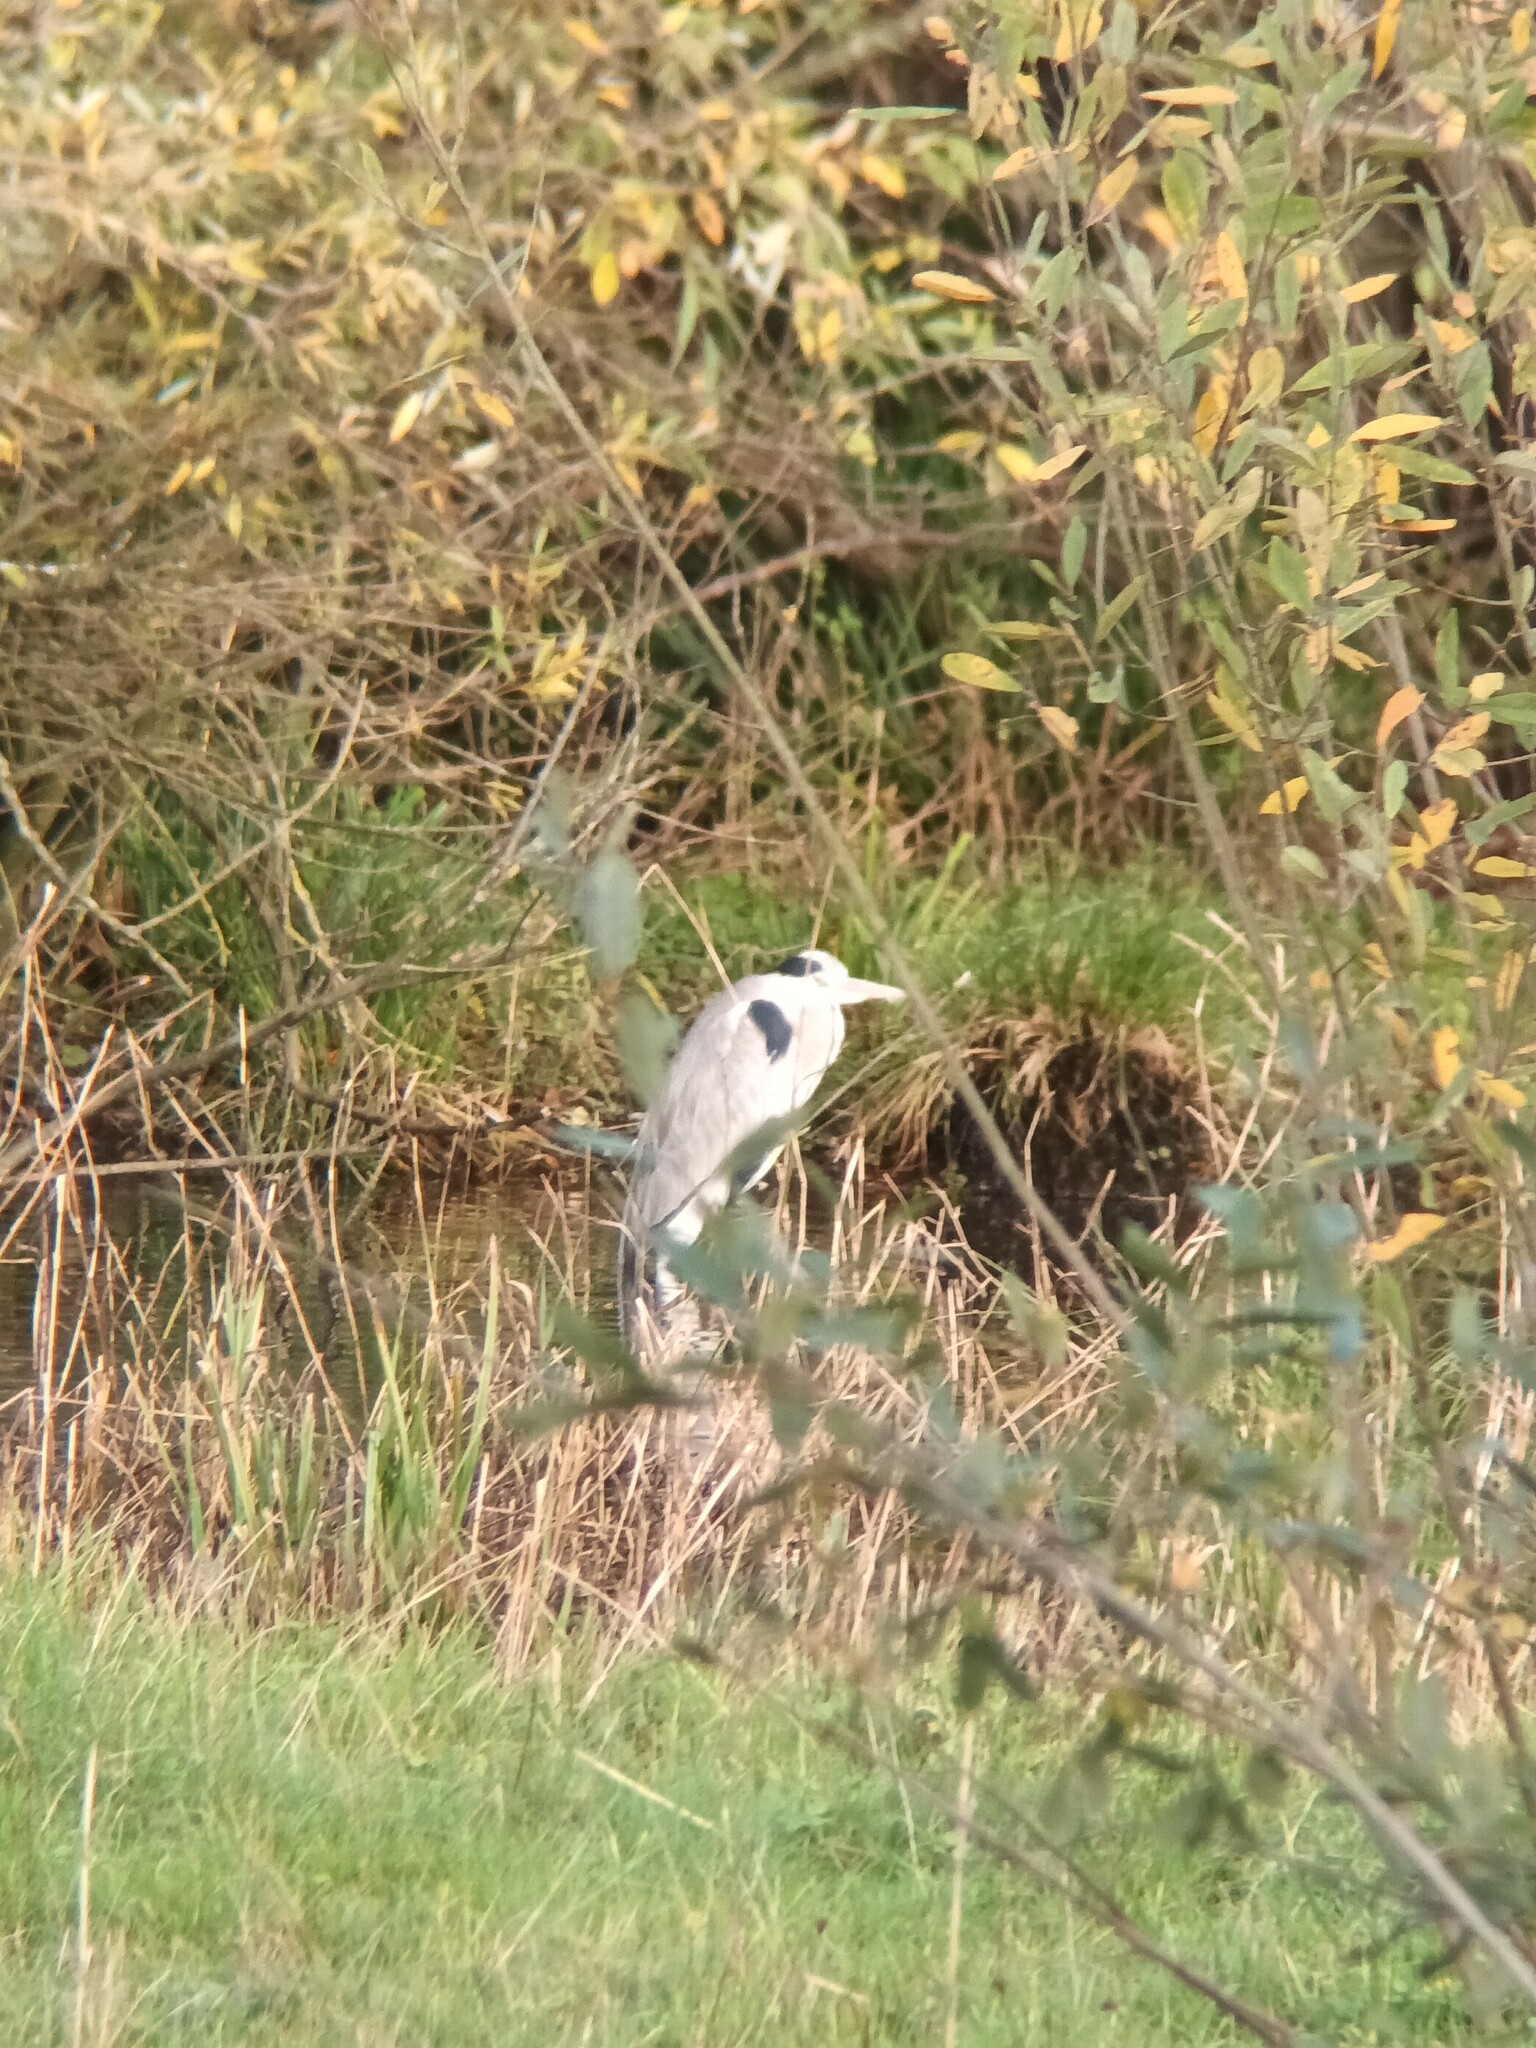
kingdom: Animalia
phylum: Chordata
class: Aves
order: Pelecaniformes
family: Ardeidae
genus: Ardea
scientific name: Ardea cinerea
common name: Grey heron
